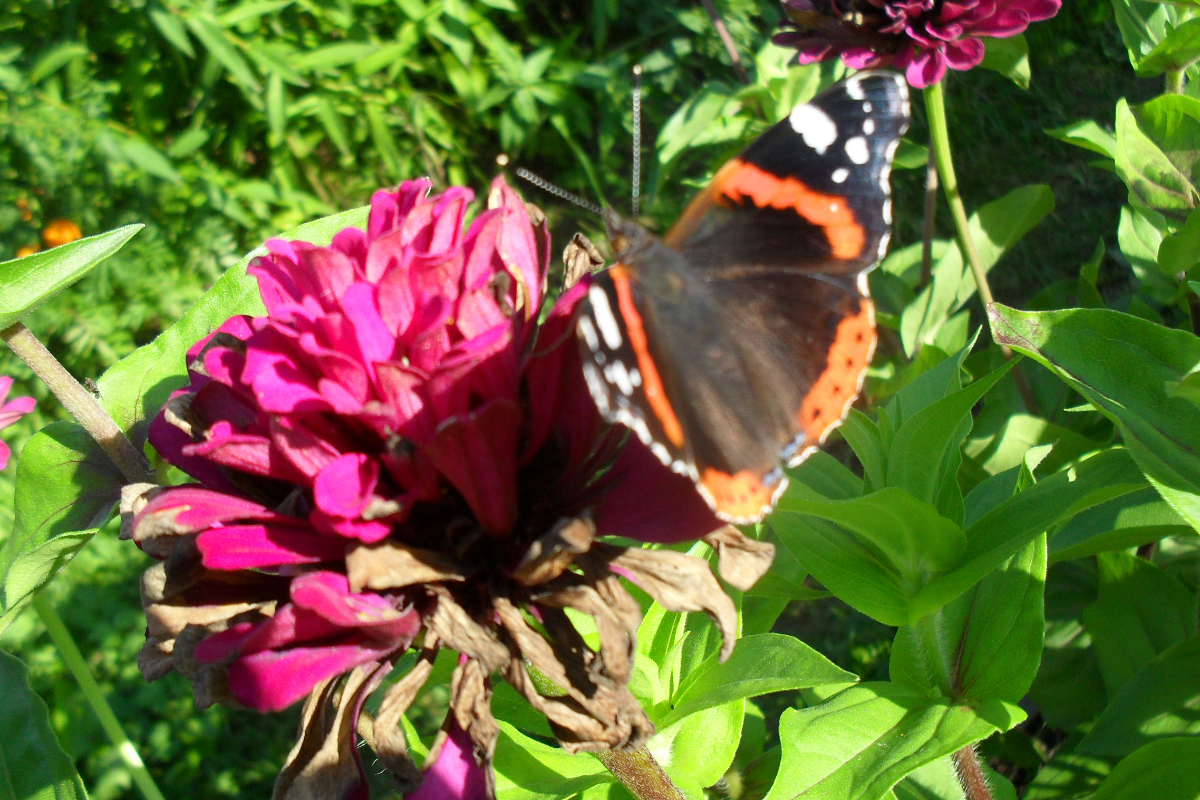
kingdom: Animalia
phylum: Arthropoda
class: Insecta
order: Lepidoptera
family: Nymphalidae
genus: Vanessa
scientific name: Vanessa atalanta
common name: Red admiral
